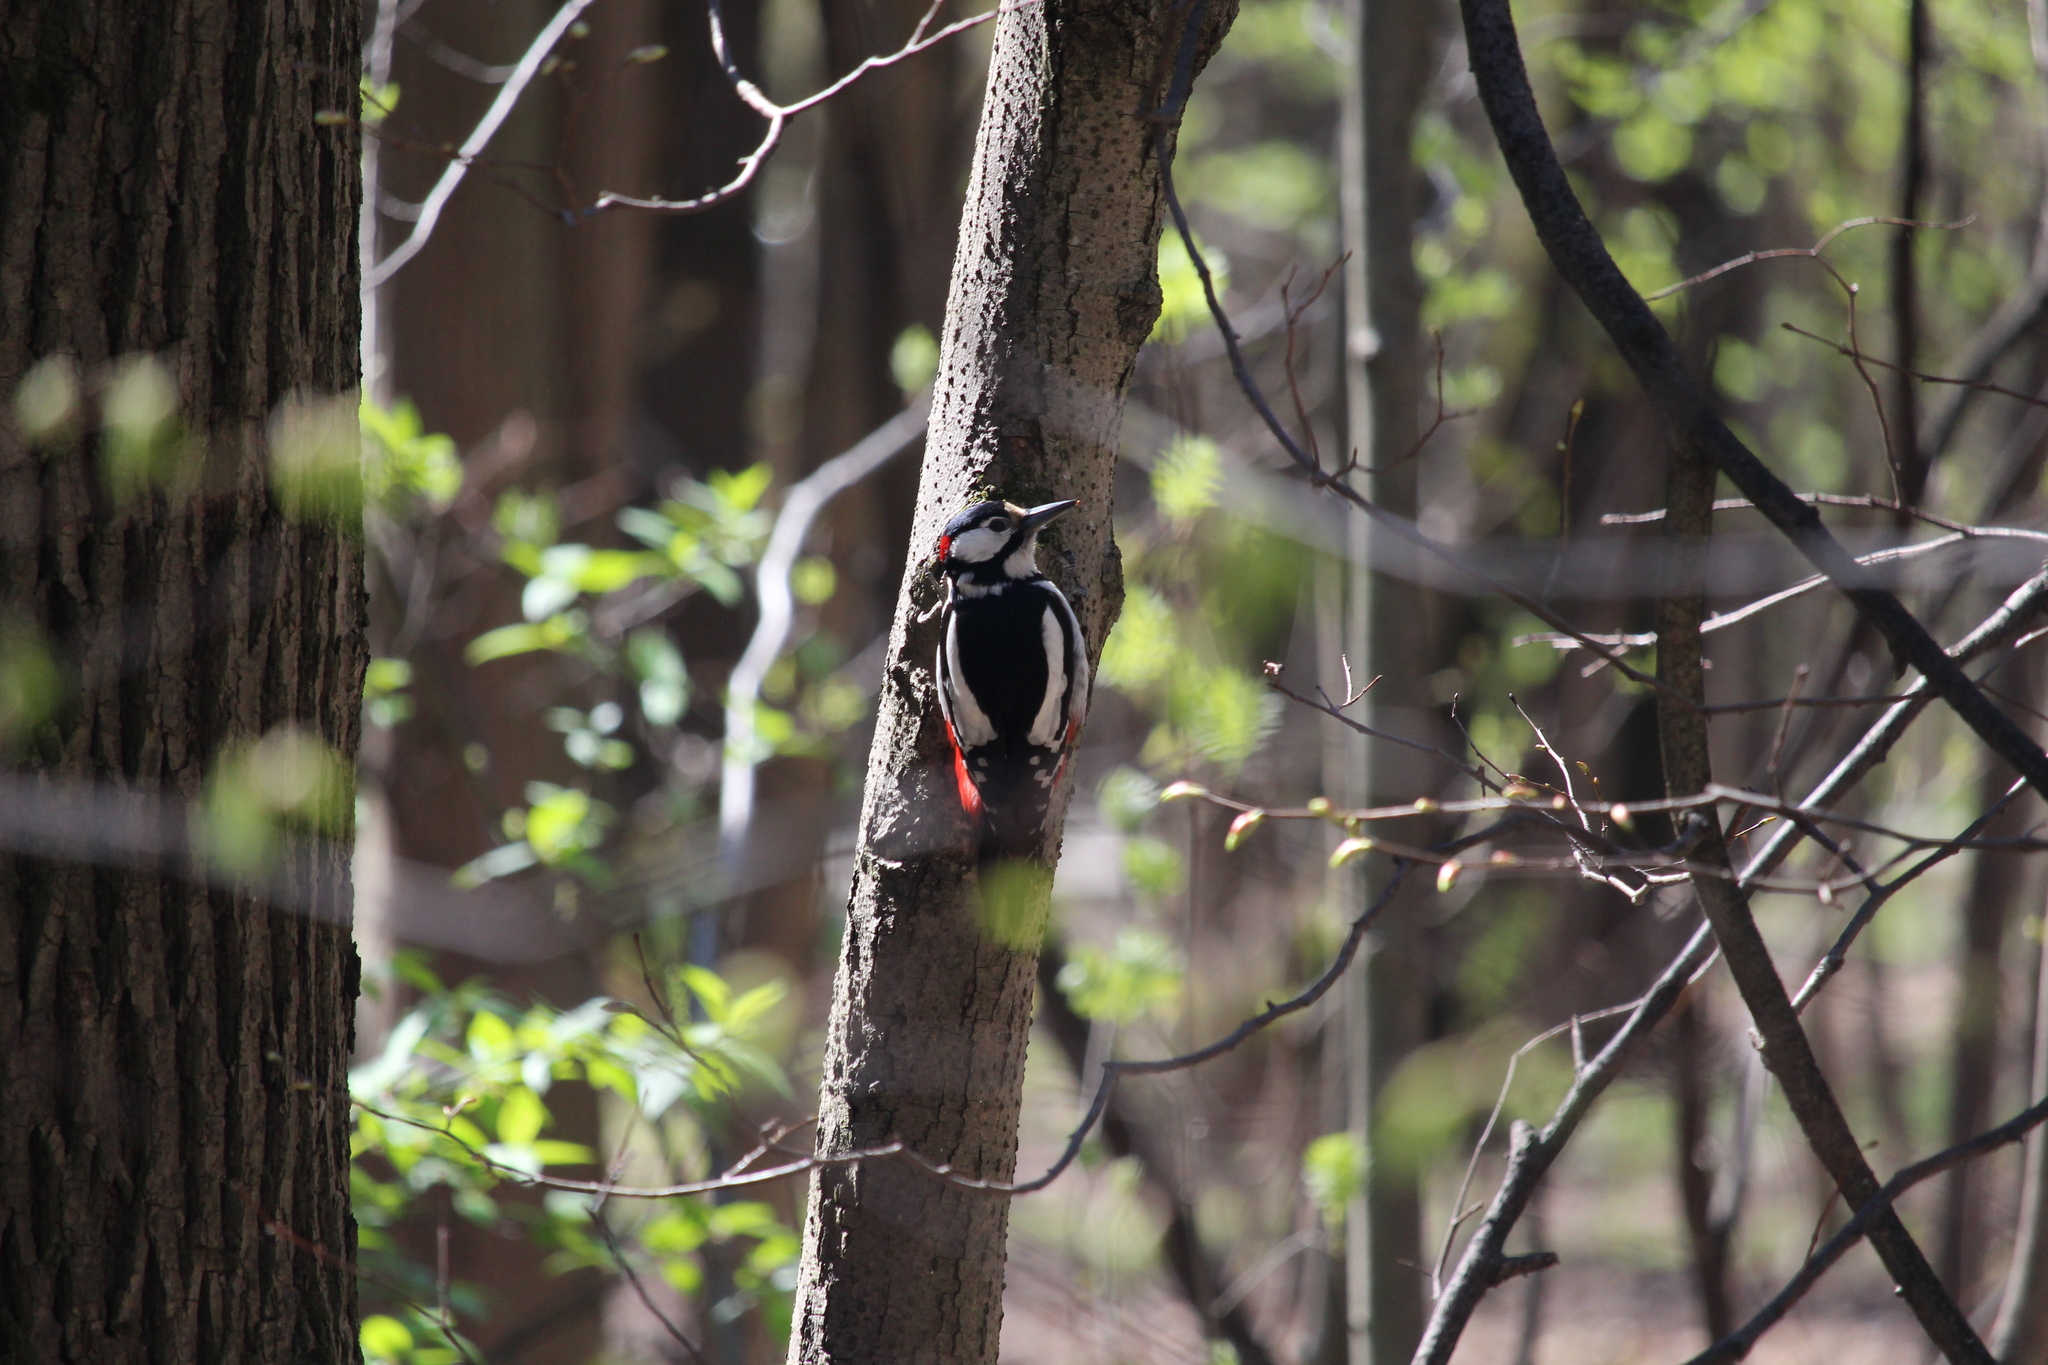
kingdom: Animalia
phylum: Chordata
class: Aves
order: Piciformes
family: Picidae
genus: Dendrocopos
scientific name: Dendrocopos major
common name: Great spotted woodpecker
